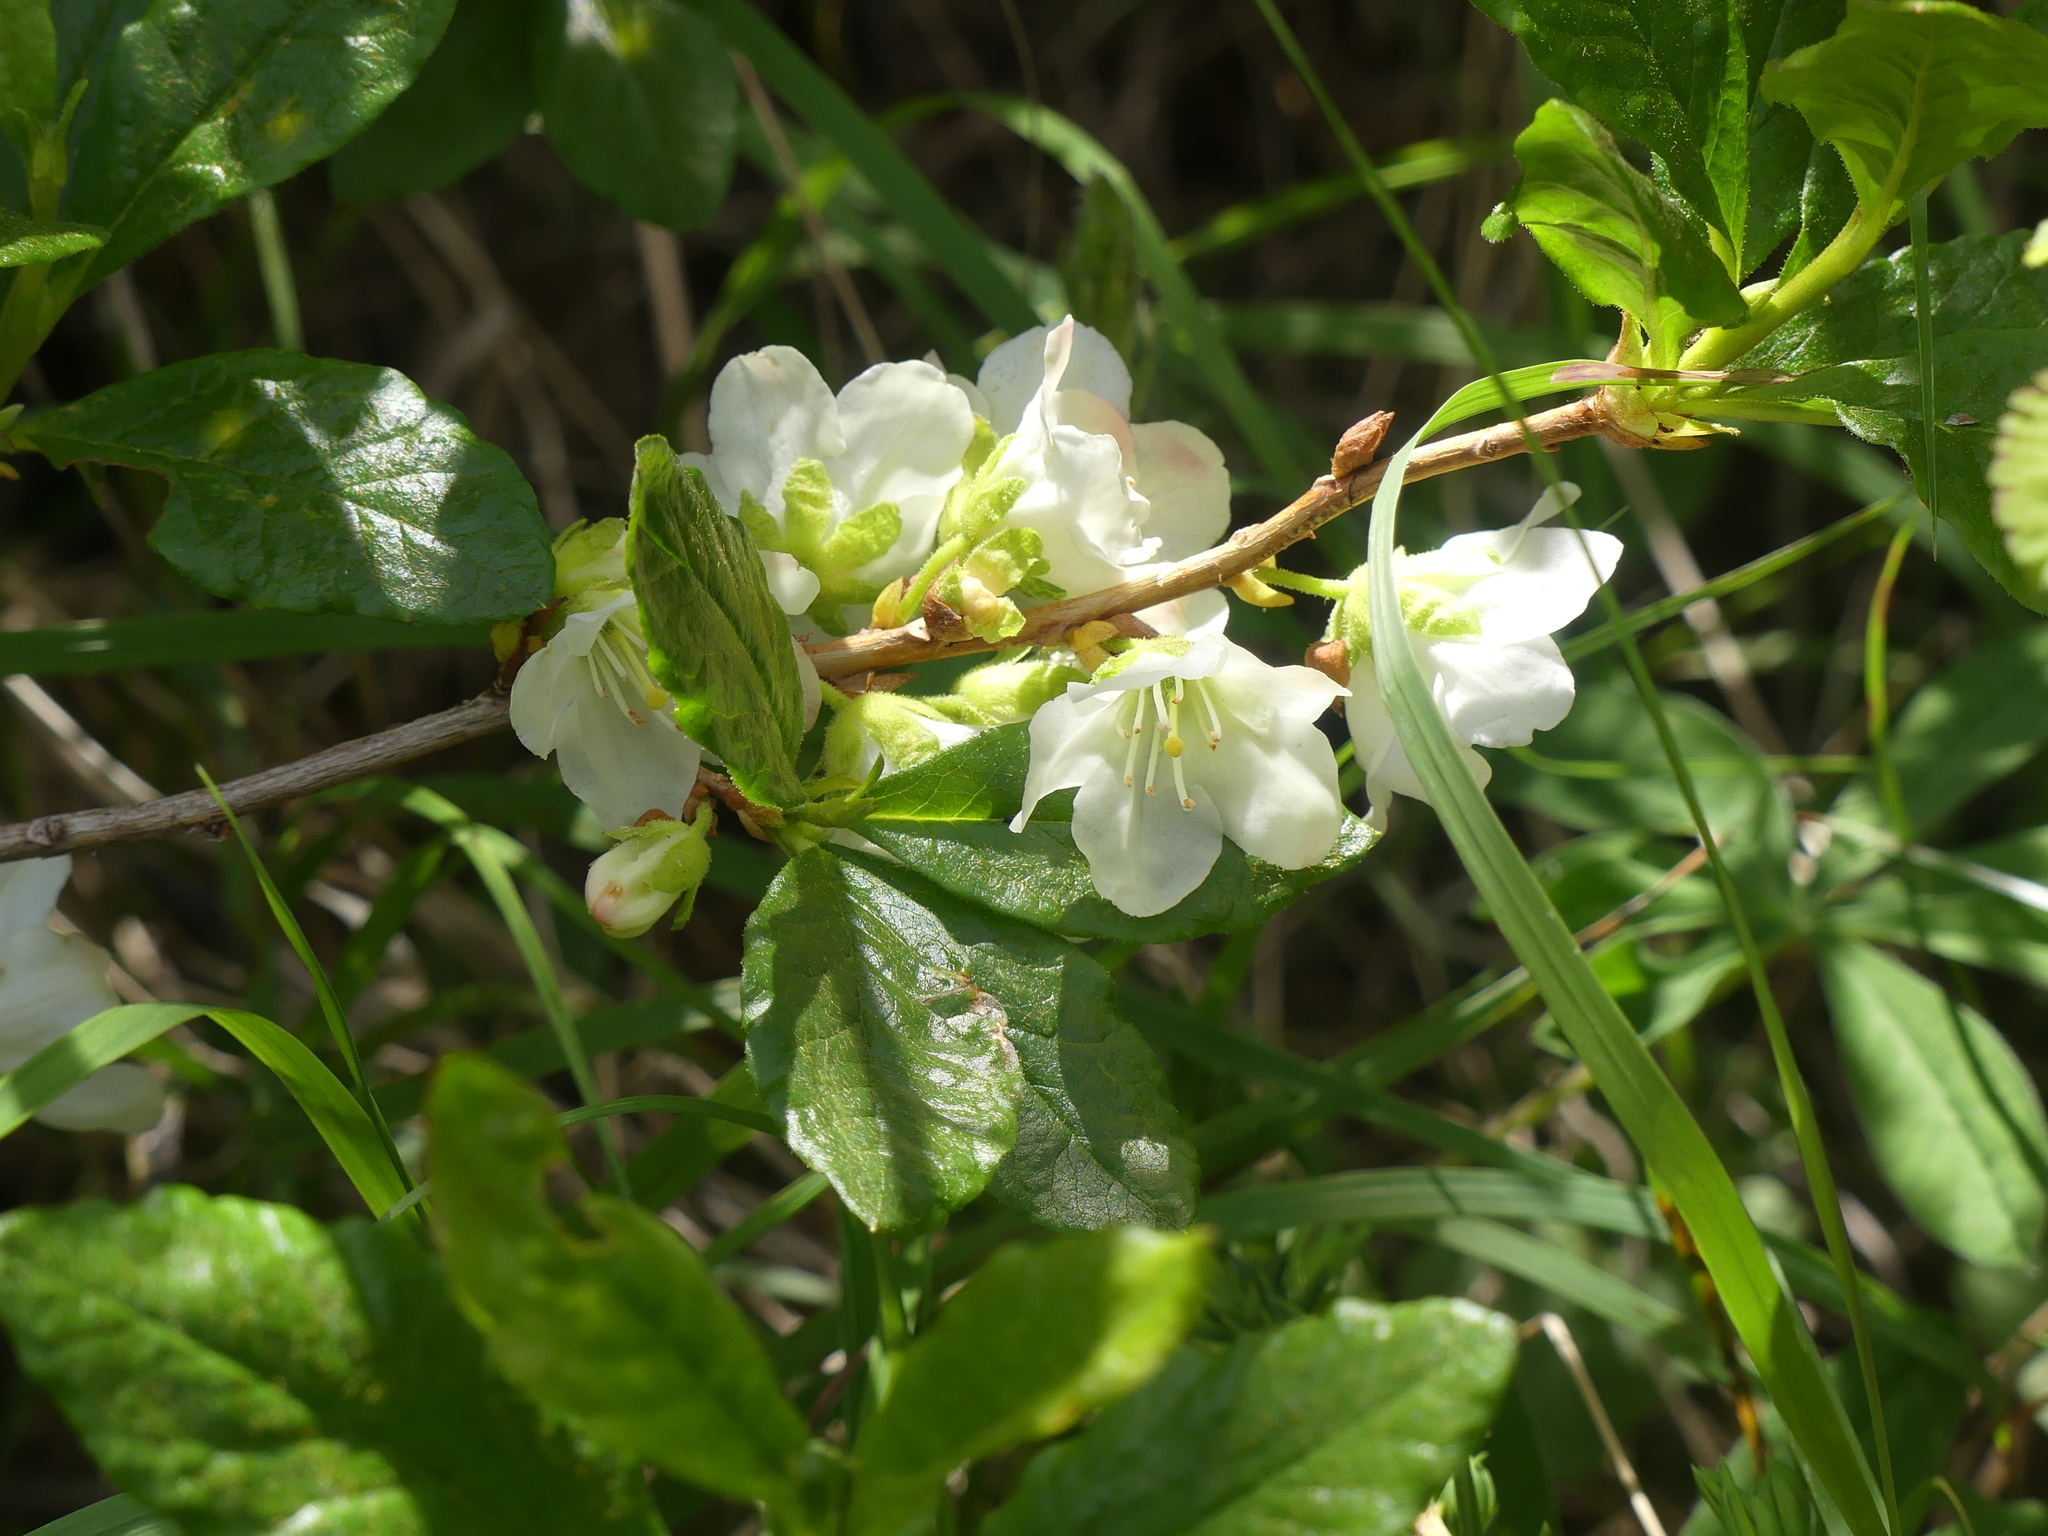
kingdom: Plantae
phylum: Tracheophyta
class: Magnoliopsida
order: Ericales
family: Ericaceae
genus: Rhododendron
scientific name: Rhododendron albiflorum
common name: White rhododendron
